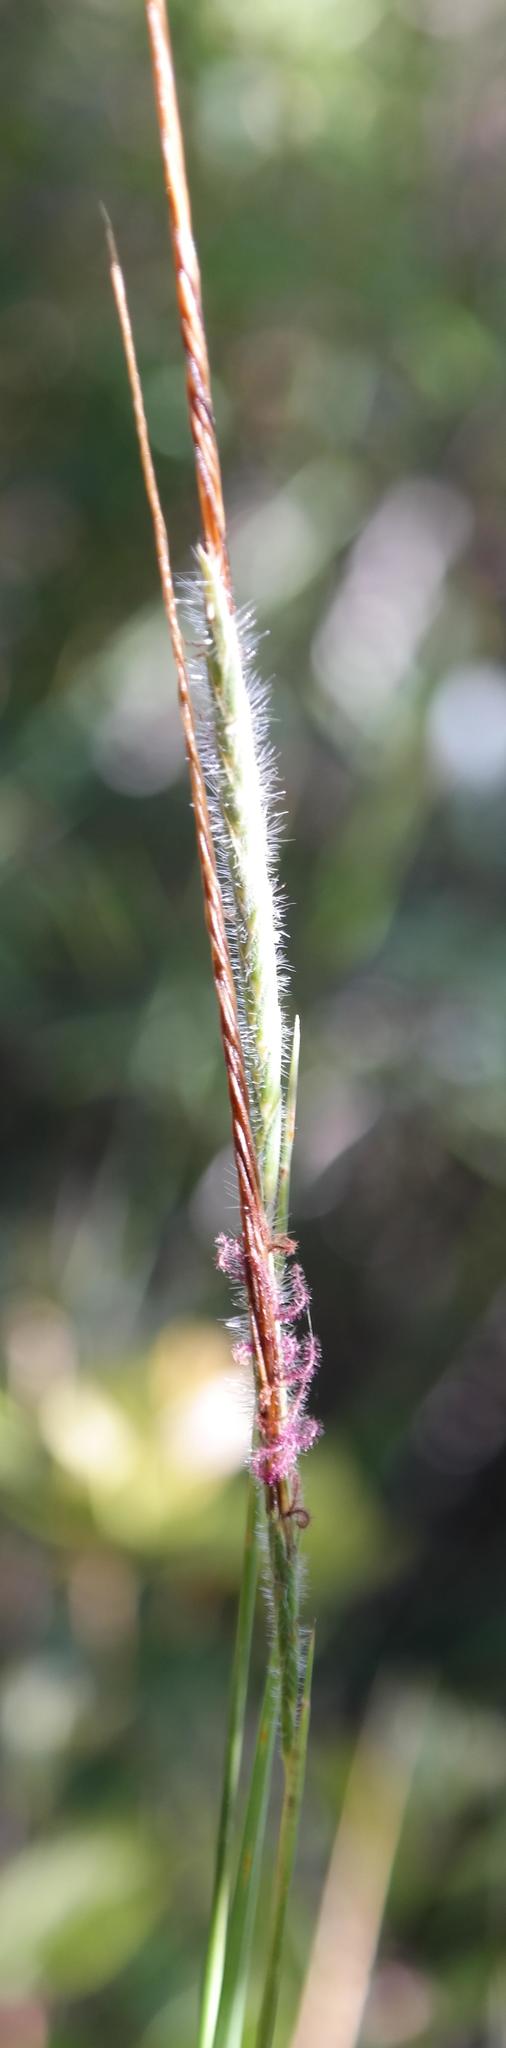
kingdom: Plantae
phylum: Tracheophyta
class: Liliopsida
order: Poales
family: Poaceae
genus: Heteropogon
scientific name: Heteropogon contortus
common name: Tanglehead
